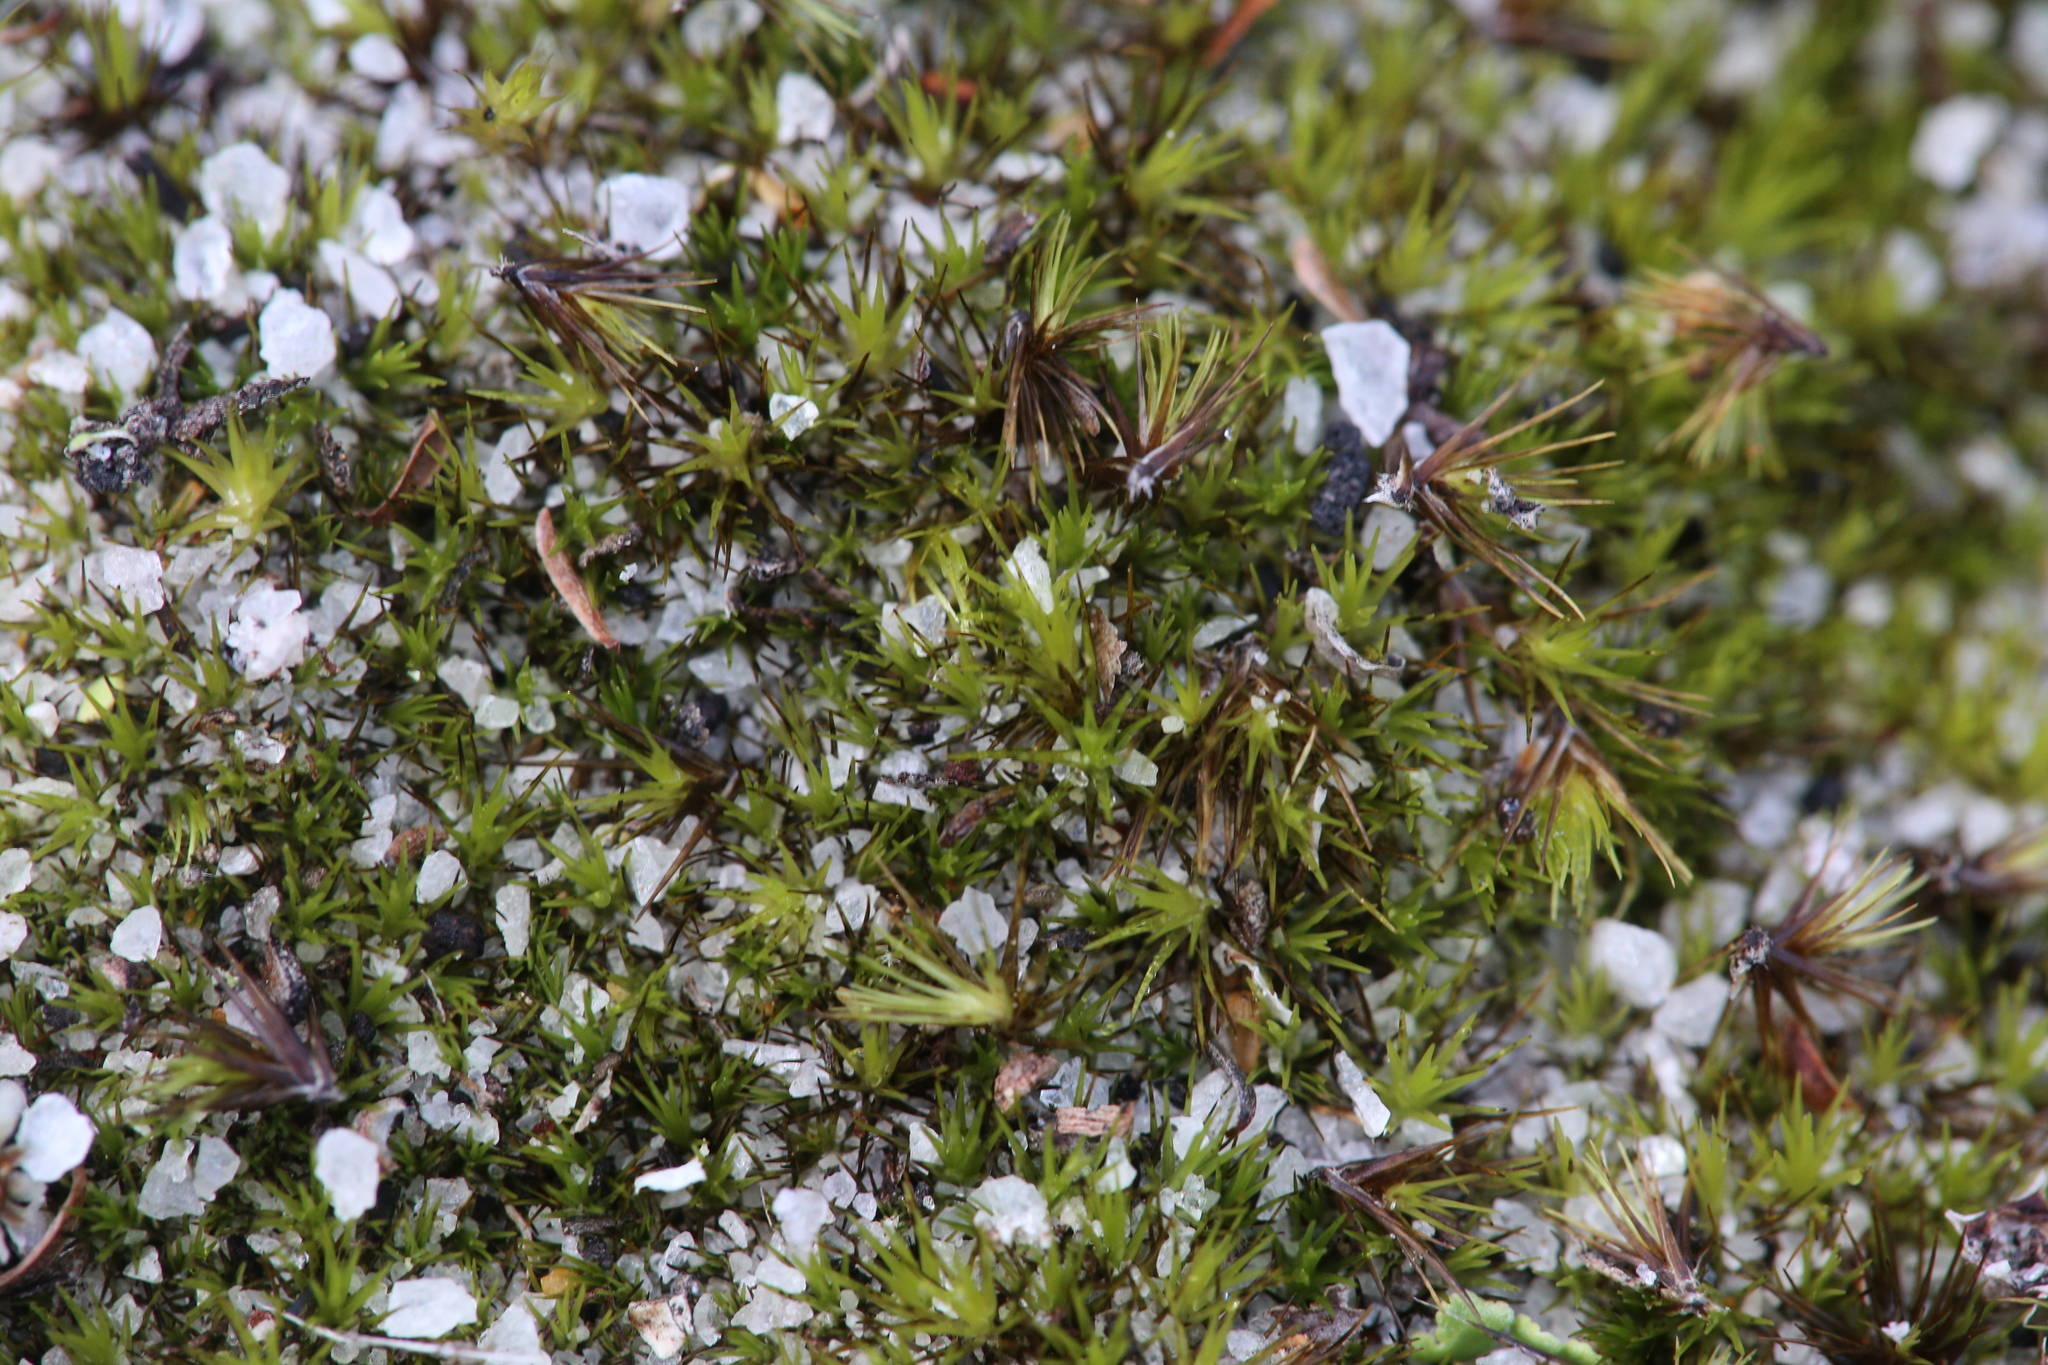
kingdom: Plantae
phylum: Bryophyta
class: Bryopsida
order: Dicranales
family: Leucobryaceae
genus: Campylopus
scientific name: Campylopus clavatus
